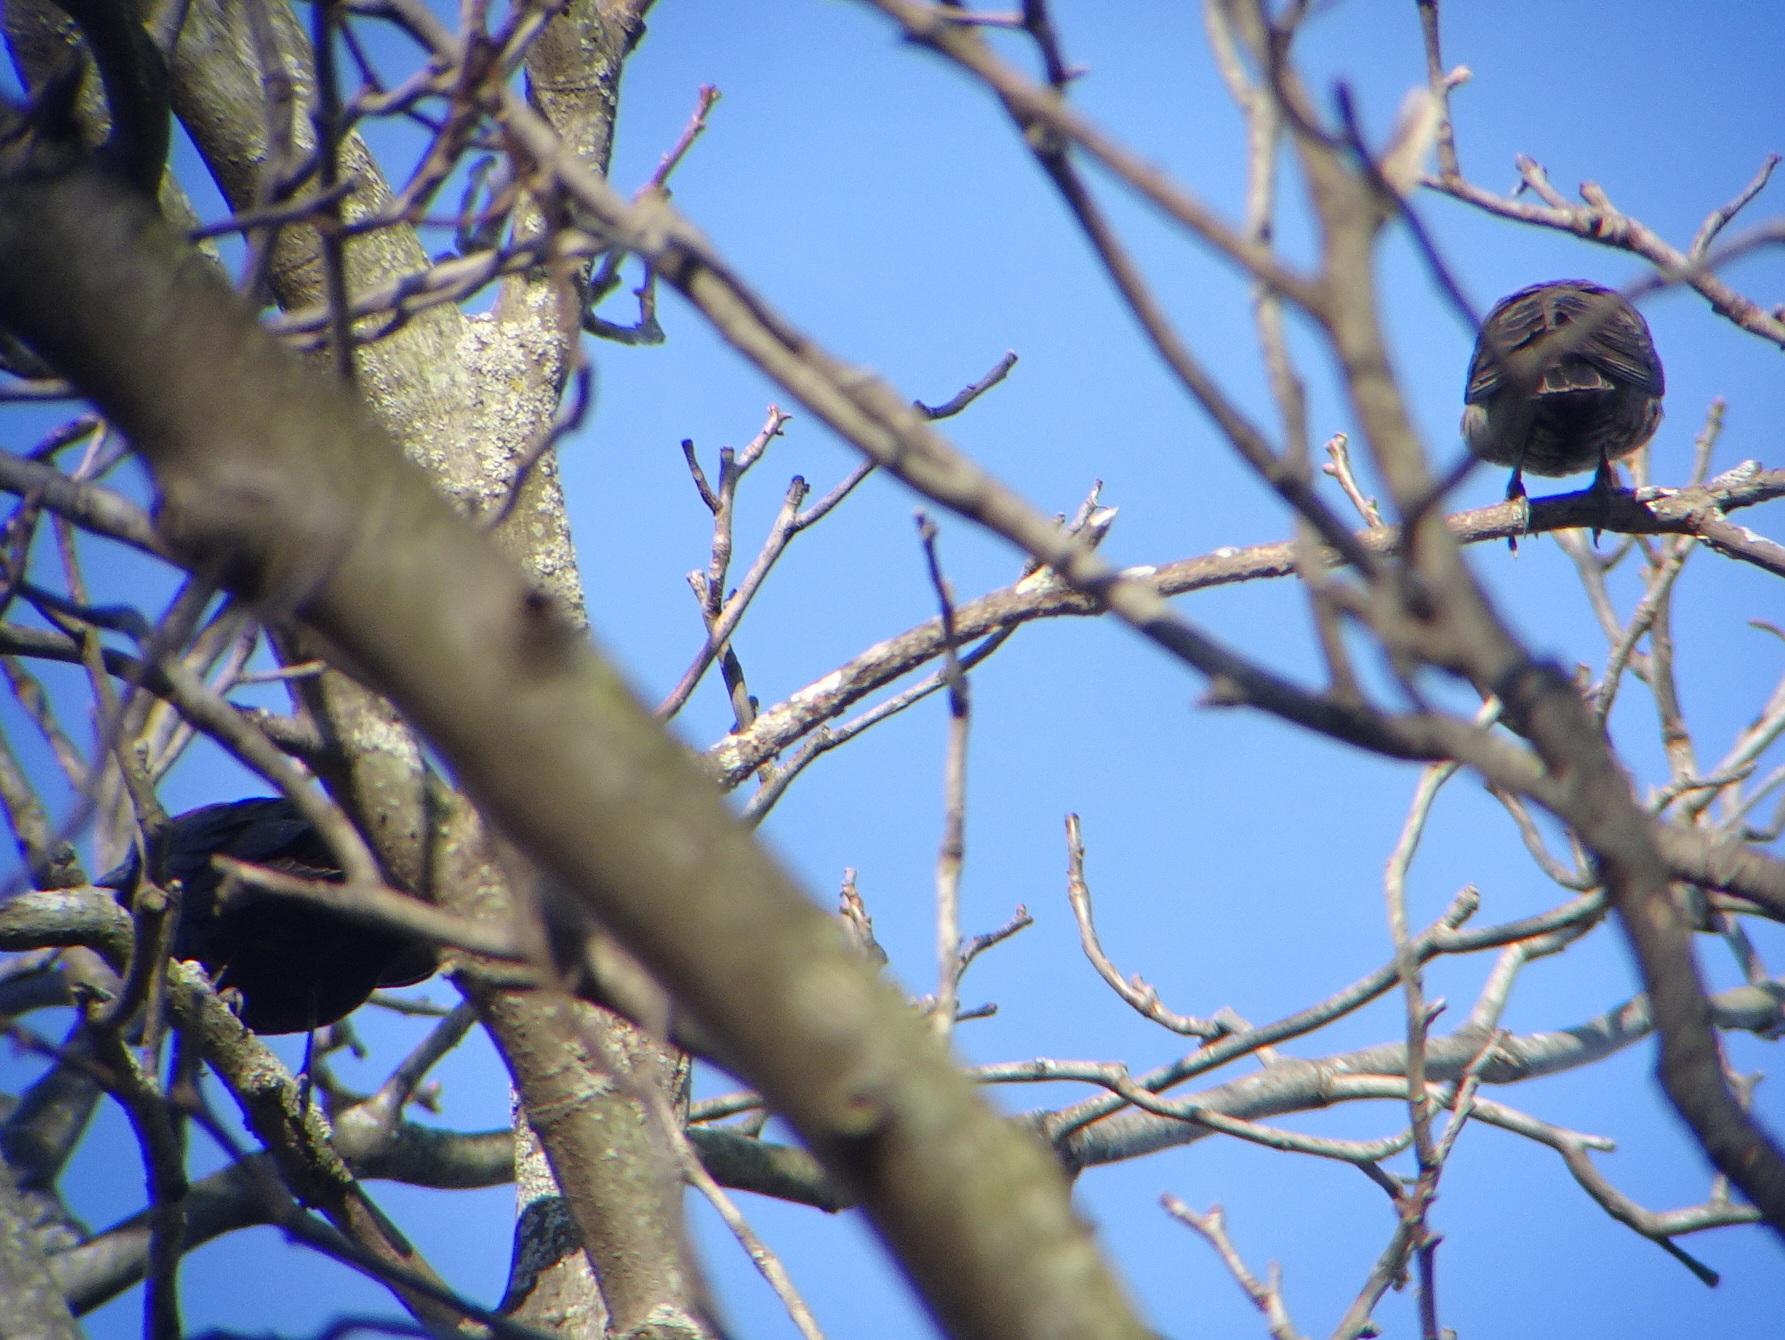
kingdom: Animalia
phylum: Chordata
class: Aves
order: Passeriformes
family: Icteridae
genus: Molothrus
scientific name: Molothrus ater
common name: Brown-headed cowbird
